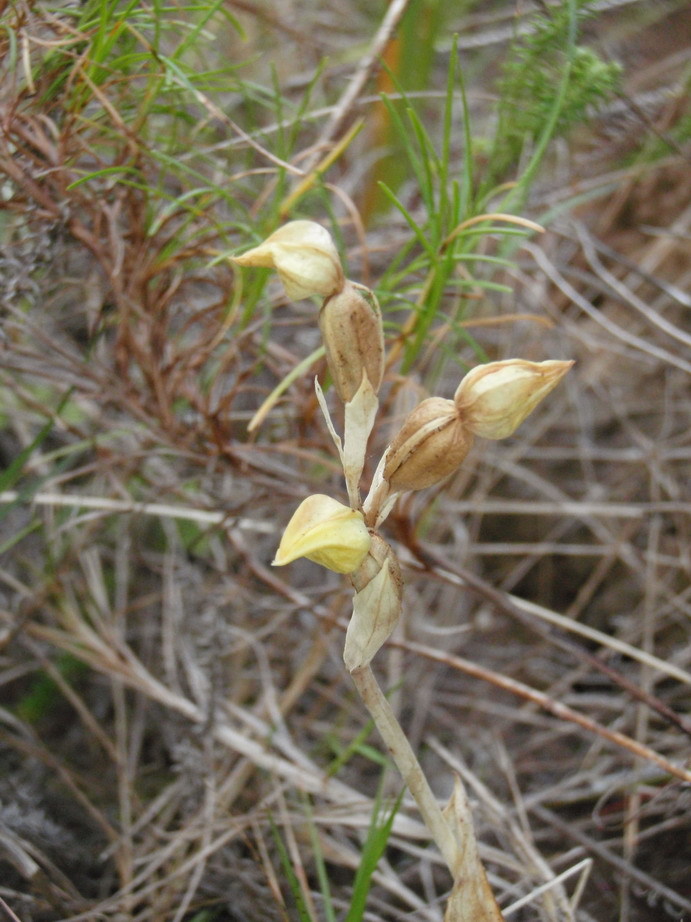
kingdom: Plantae
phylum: Tracheophyta
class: Liliopsida
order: Asparagales
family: Orchidaceae
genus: Pterygodium
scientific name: Pterygodium cleistogamum
